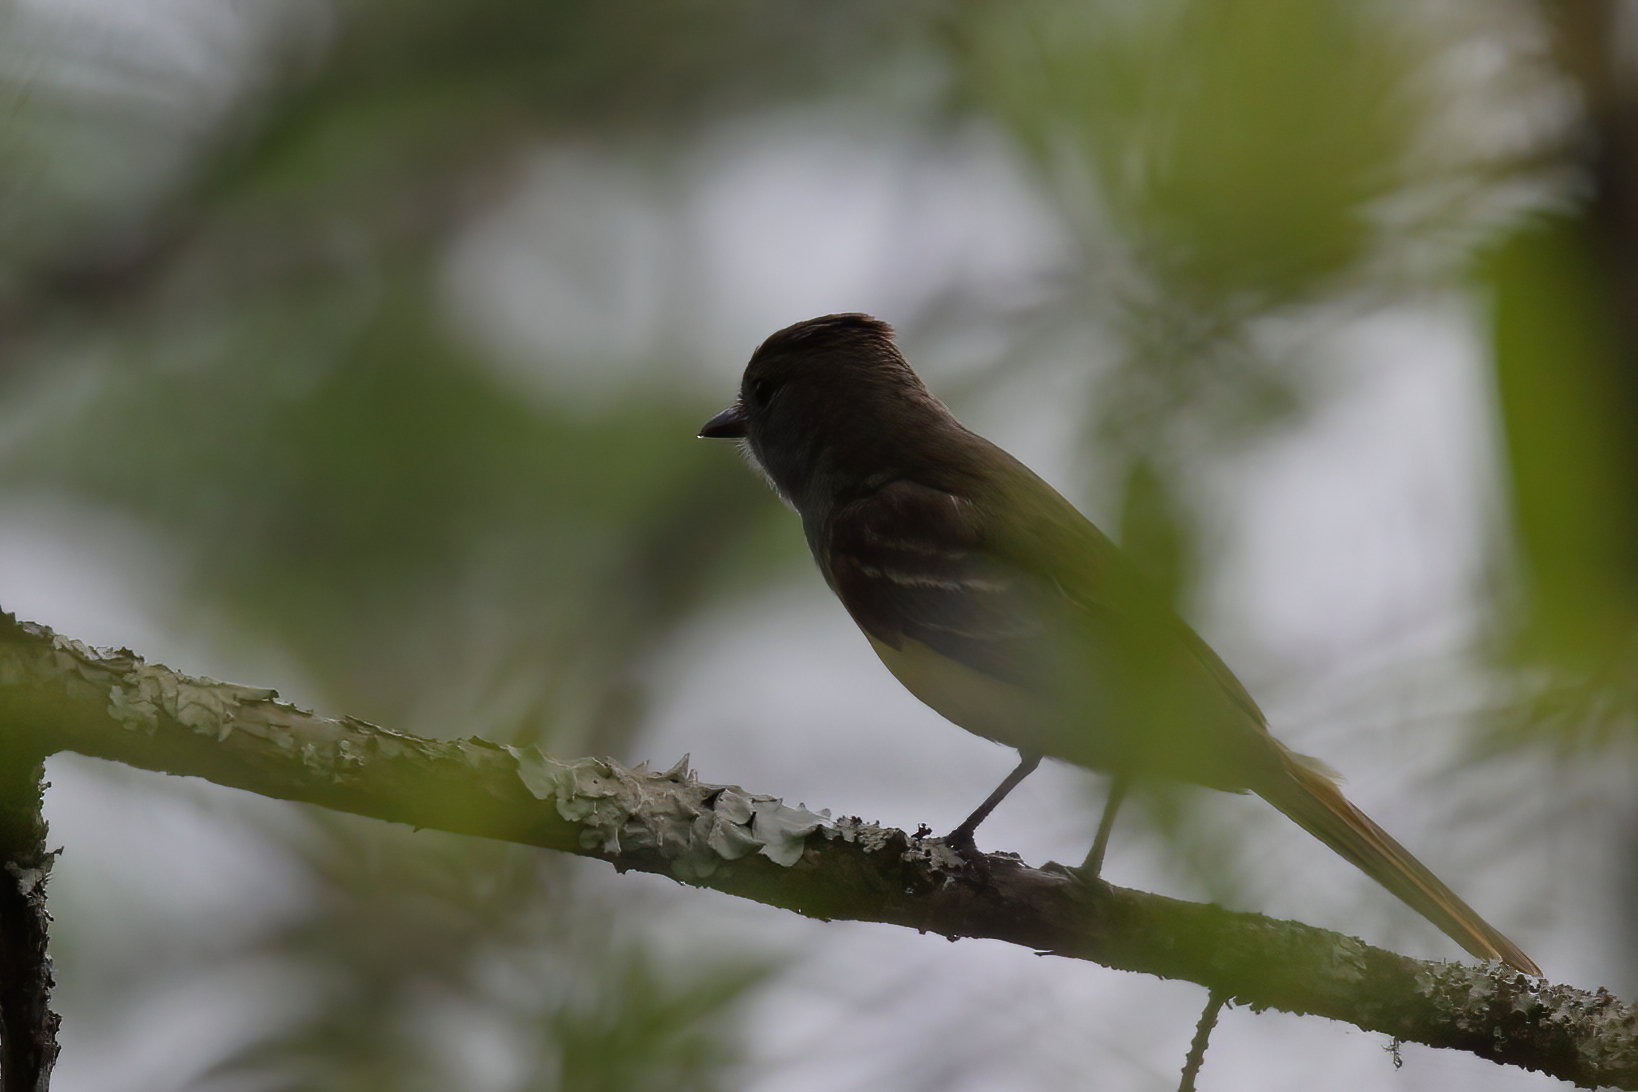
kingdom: Animalia
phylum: Chordata
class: Aves
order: Passeriformes
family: Tyrannidae
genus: Myiarchus
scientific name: Myiarchus crinitus
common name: Great crested flycatcher
